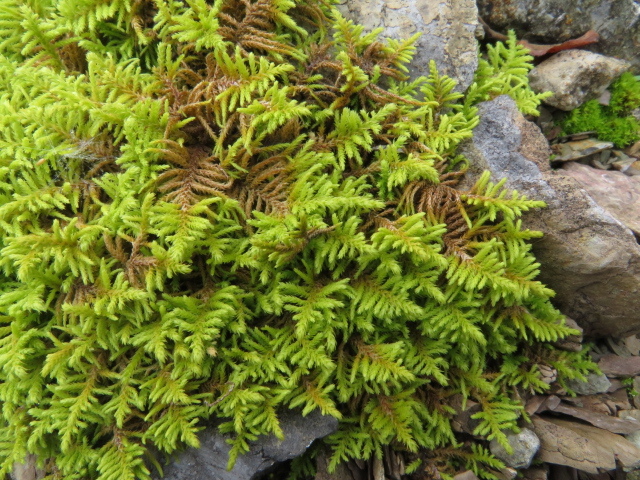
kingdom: Plantae
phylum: Bryophyta
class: Bryopsida
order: Hypnales
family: Thuidiaceae
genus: Abietinella
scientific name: Abietinella abietina
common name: Wiry fern moss
